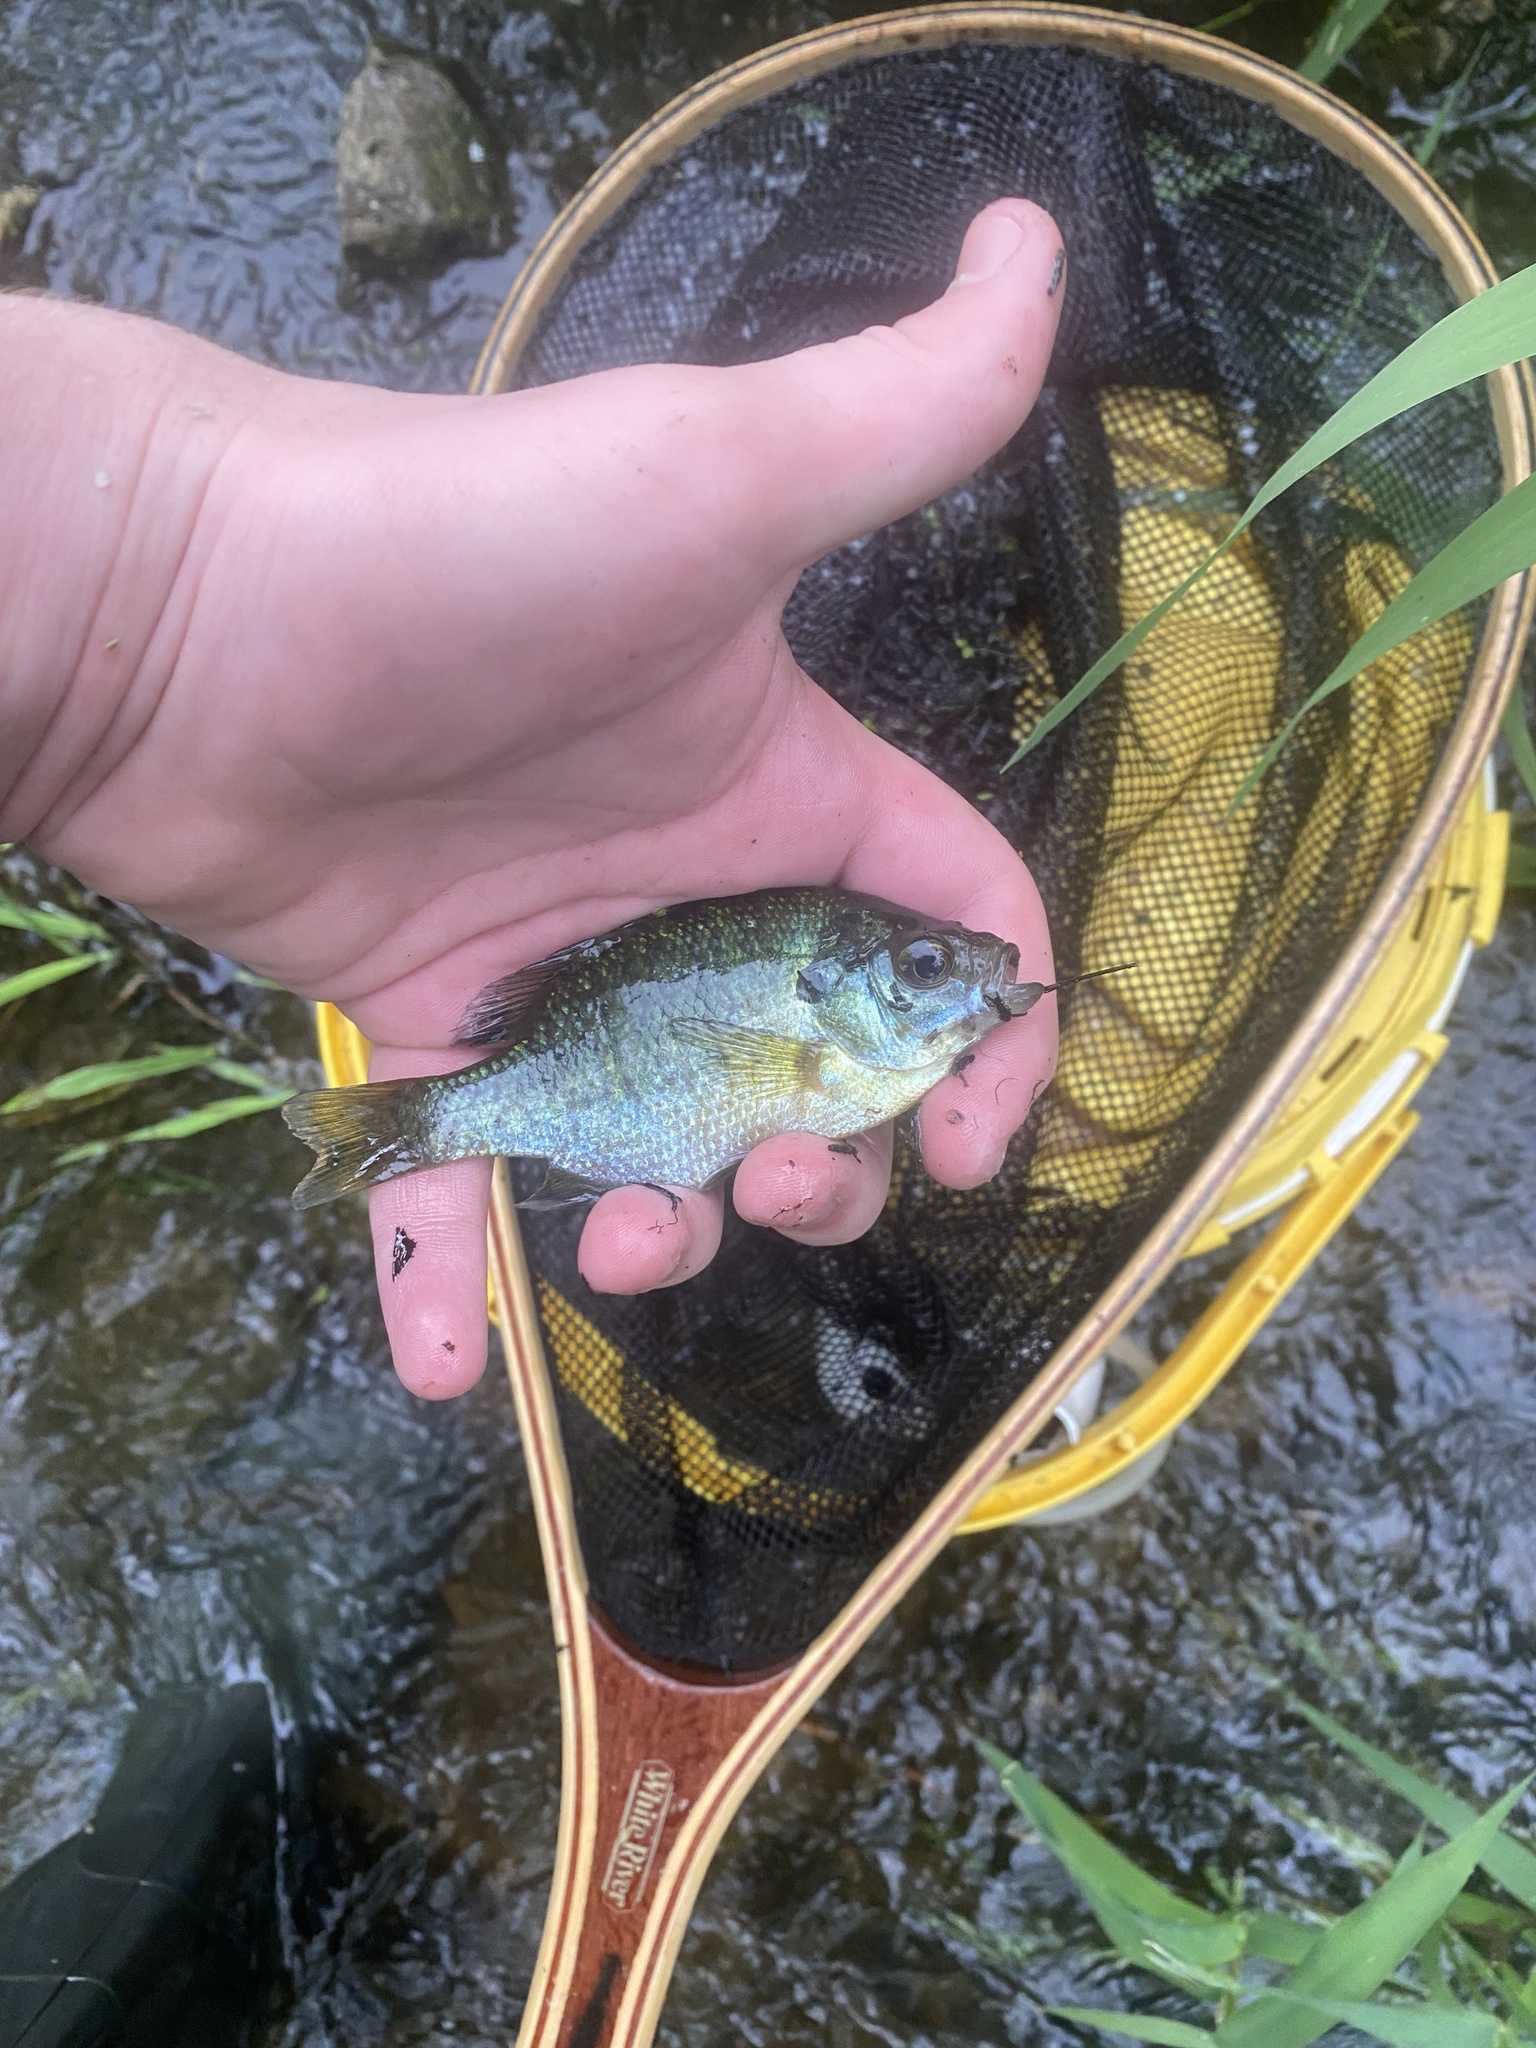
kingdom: Animalia
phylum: Chordata
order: Perciformes
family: Centrarchidae
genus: Lepomis
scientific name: Lepomis macrochirus
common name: Bluegill
